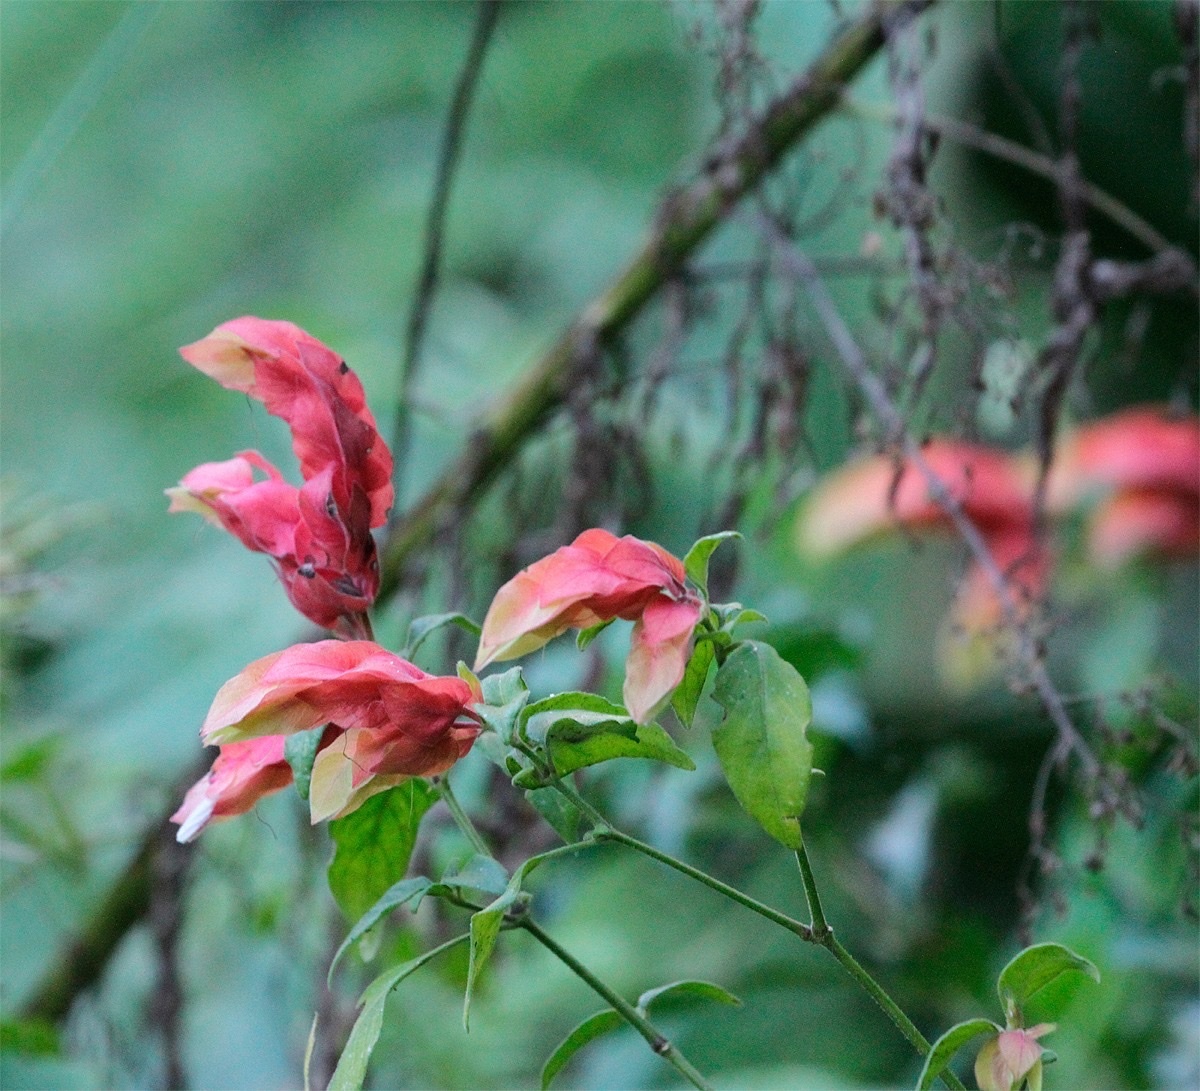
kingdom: Plantae
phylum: Tracheophyta
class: Magnoliopsida
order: Lamiales
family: Acanthaceae
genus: Justicia
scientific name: Justicia brandegeeana
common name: Shrimpplant
